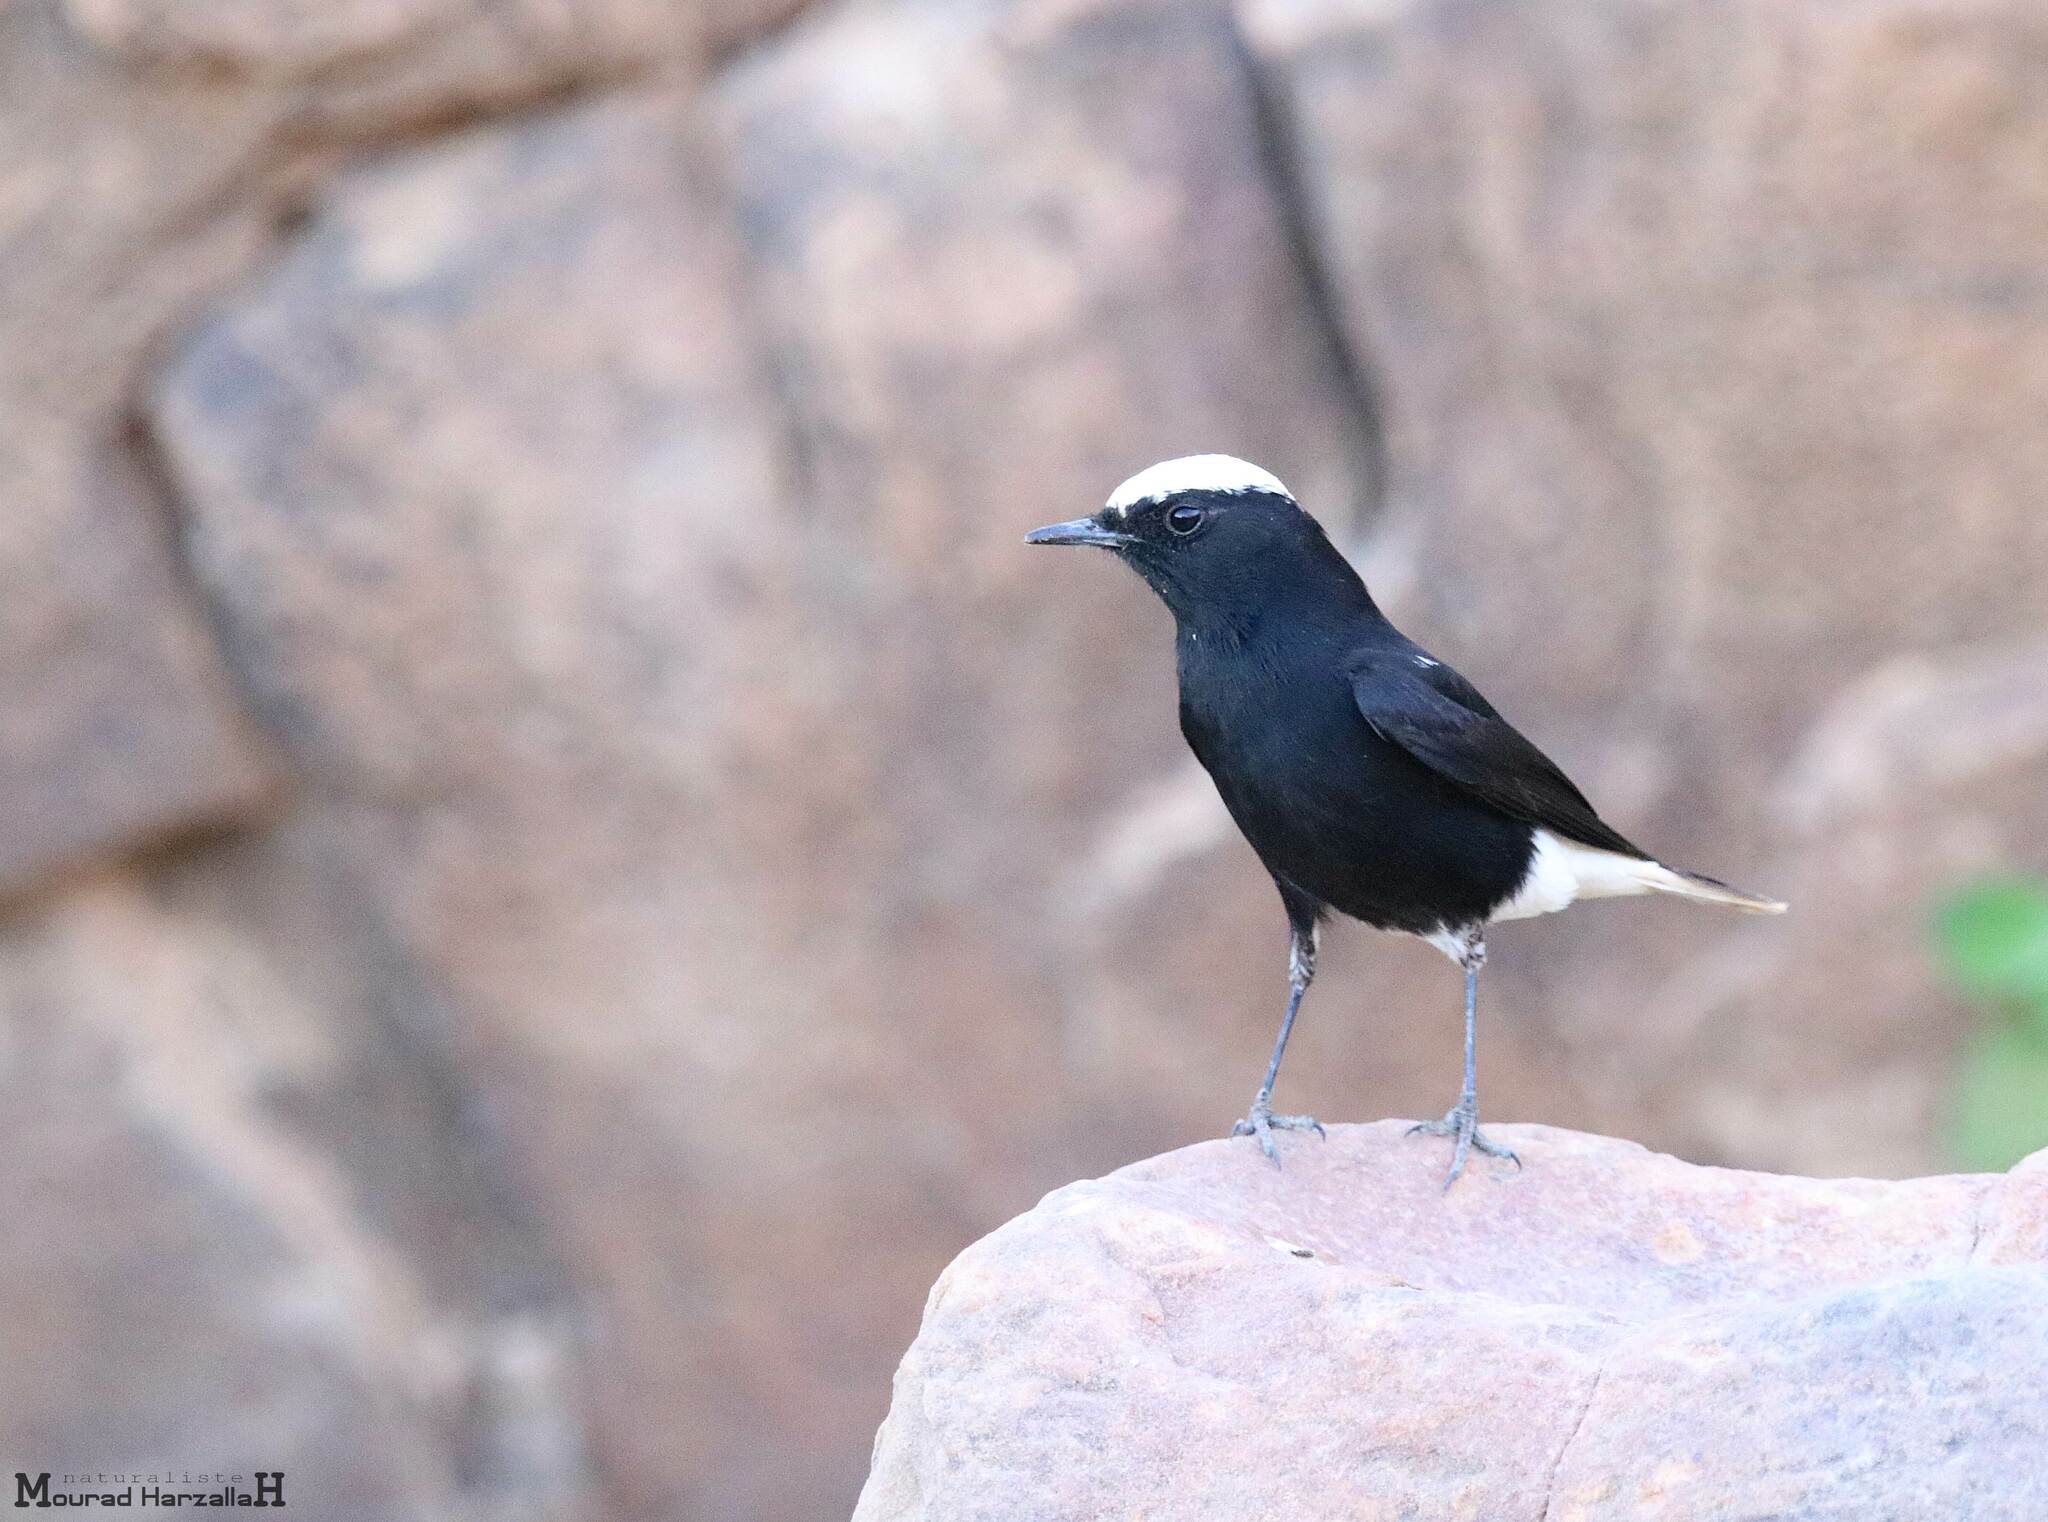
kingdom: Animalia
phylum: Chordata
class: Aves
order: Passeriformes
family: Muscicapidae
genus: Oenanthe
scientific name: Oenanthe leucopyga
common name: White-crowned wheatear
